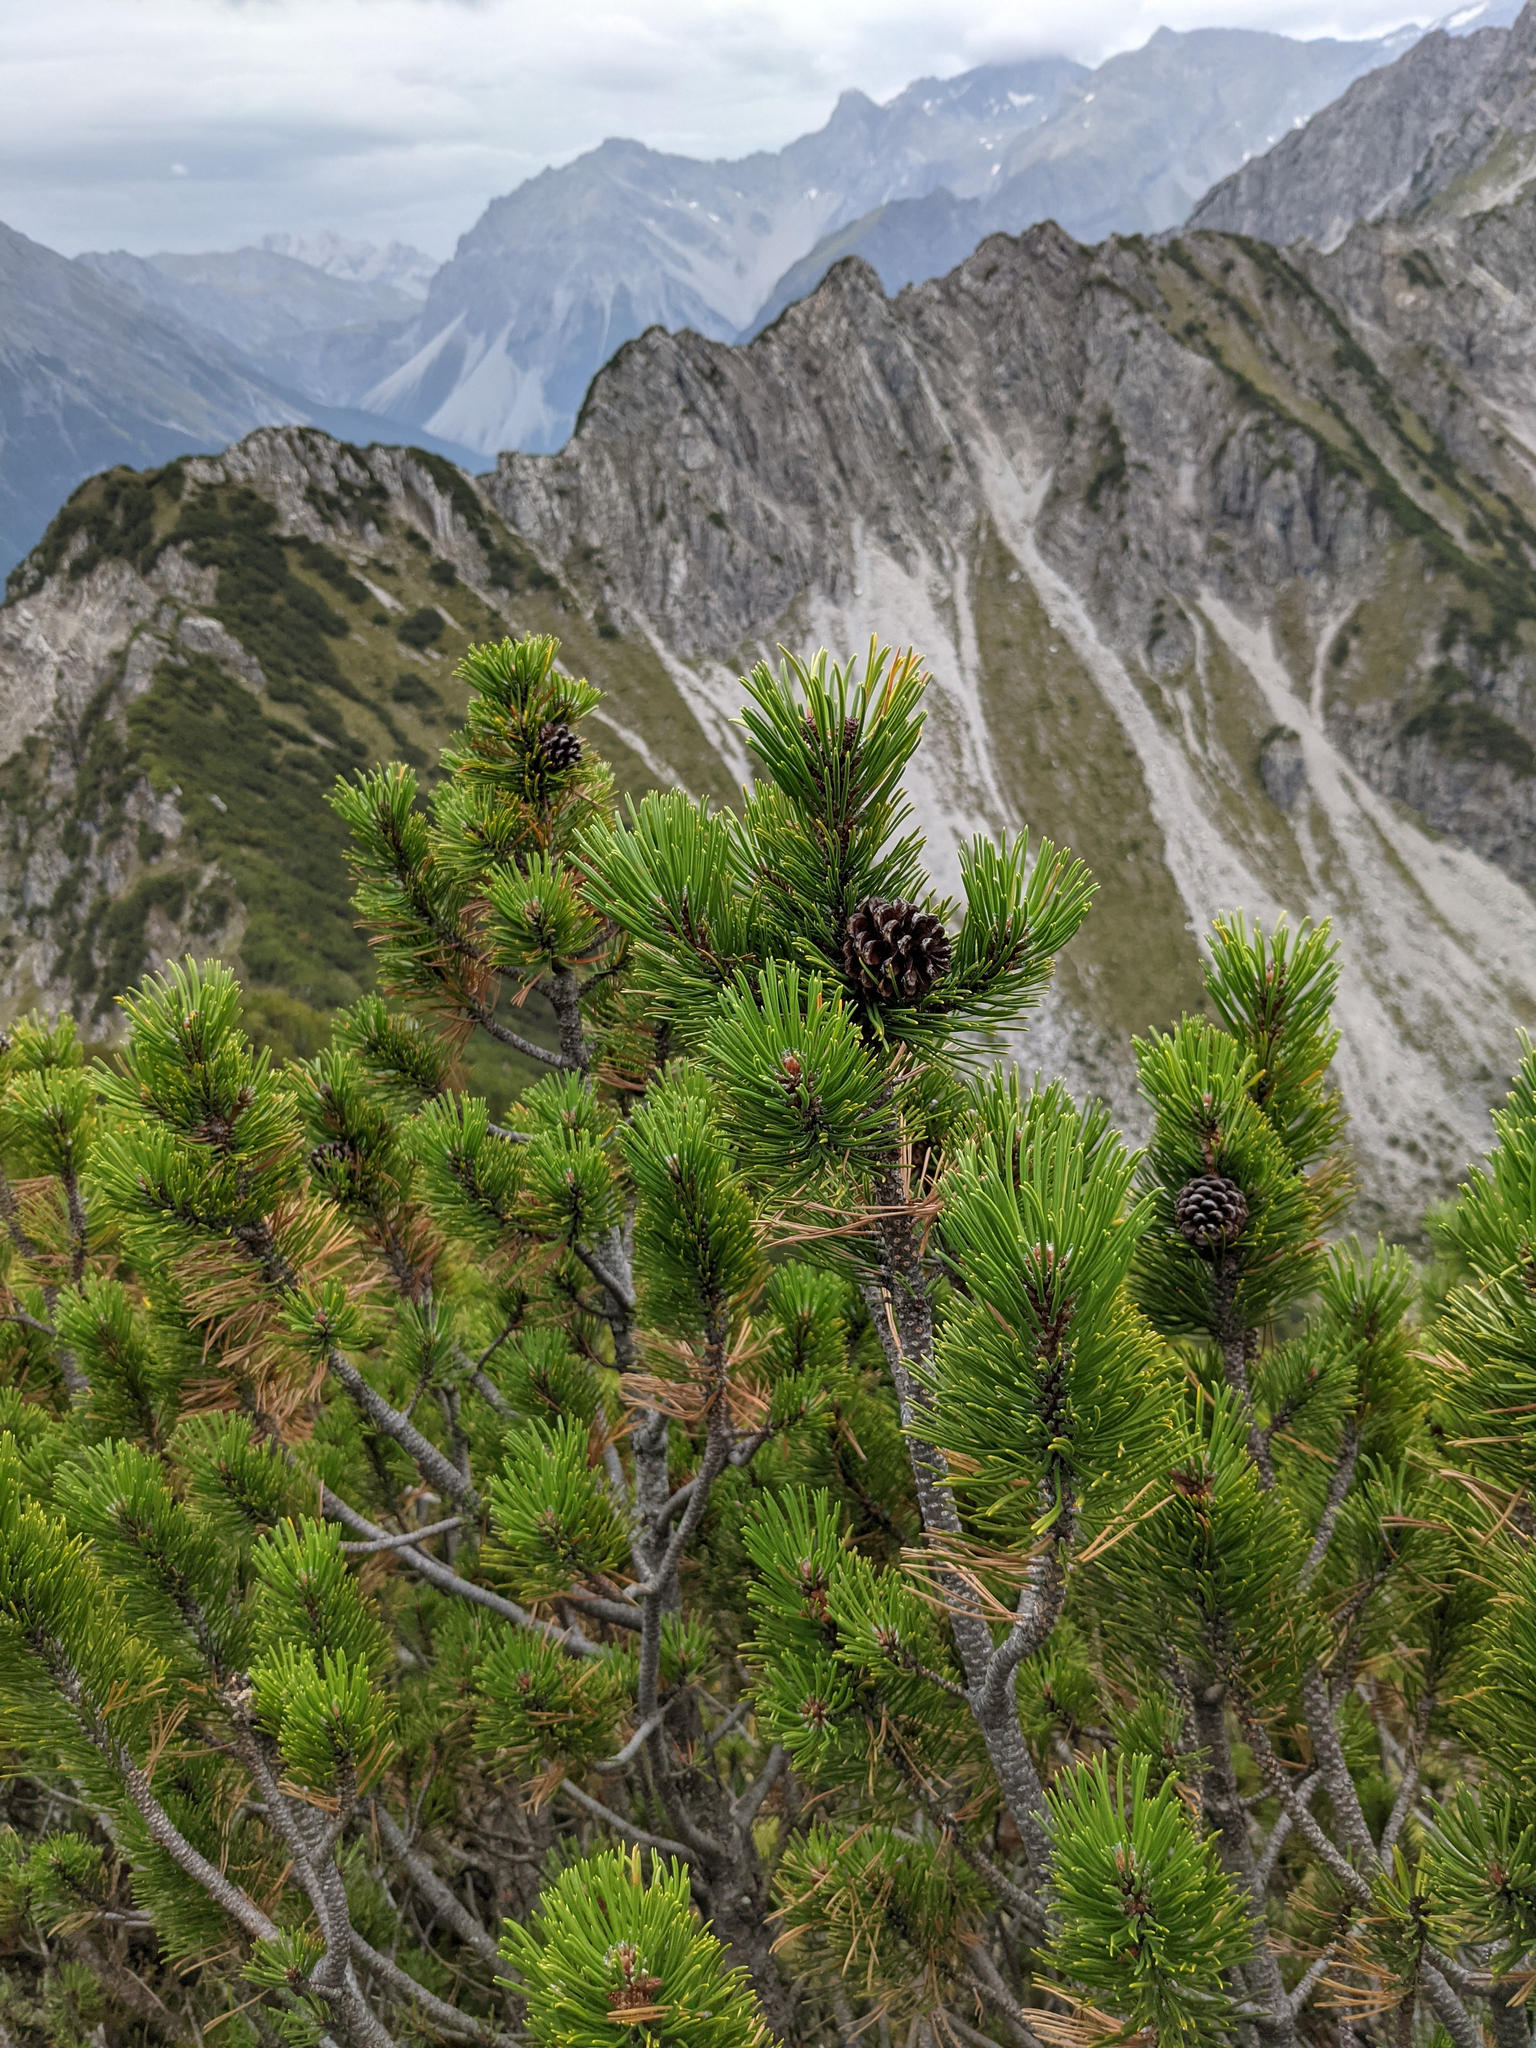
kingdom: Plantae
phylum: Tracheophyta
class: Pinopsida
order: Pinales
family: Pinaceae
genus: Pinus
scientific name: Pinus mugo
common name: Mugo pine
